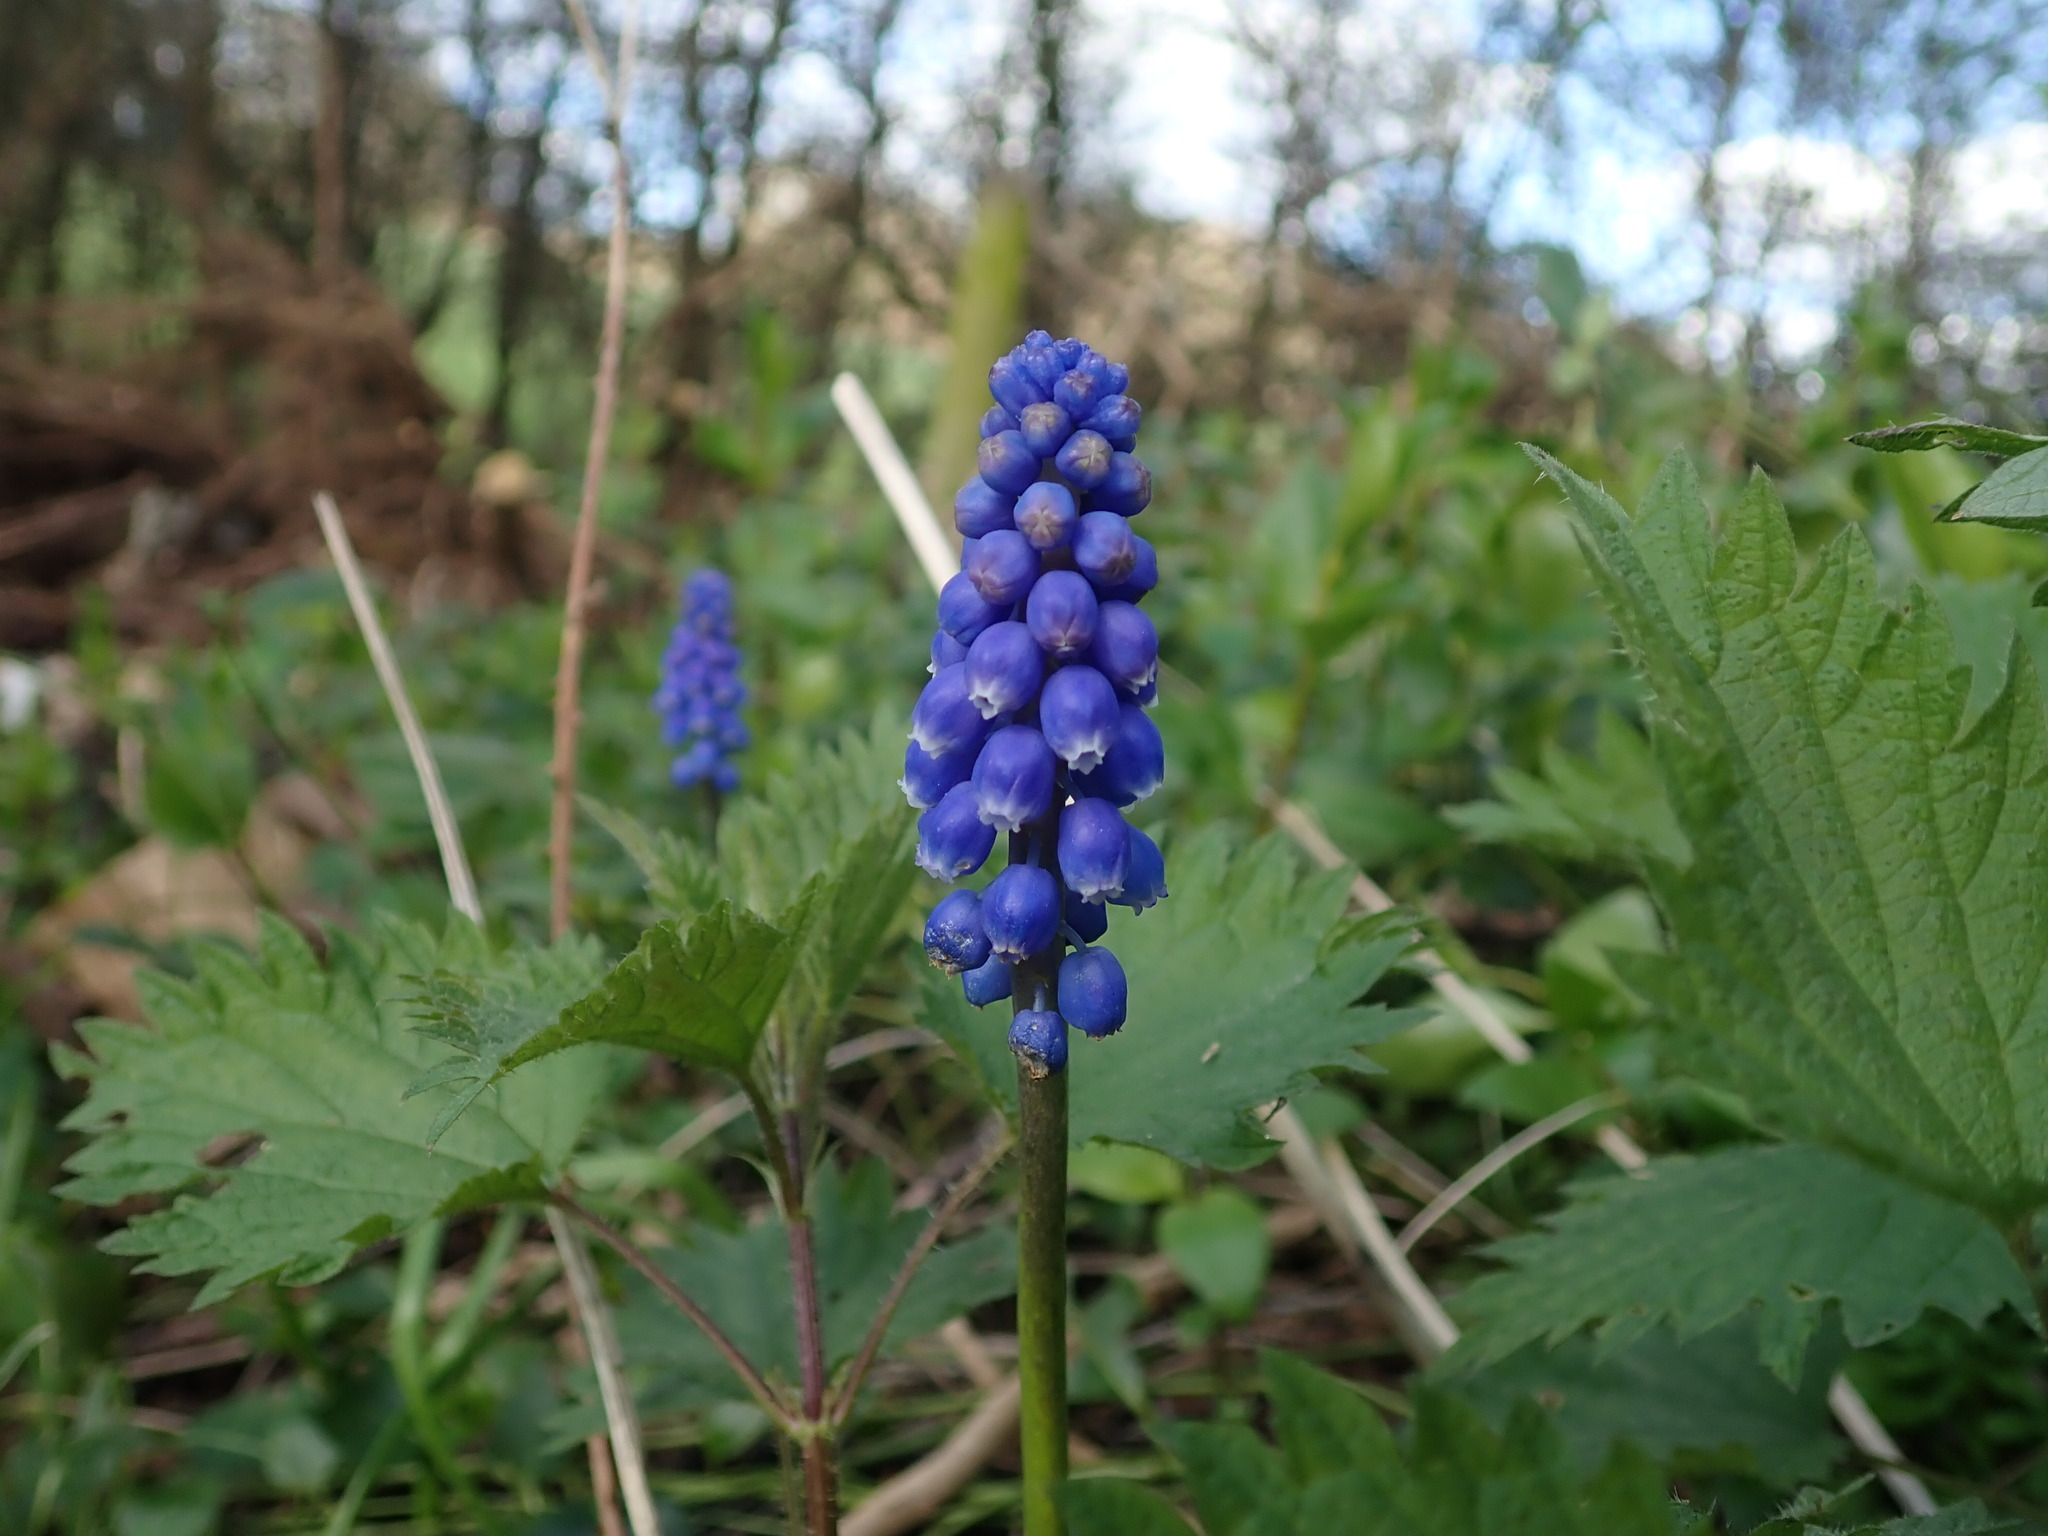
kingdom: Plantae
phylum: Tracheophyta
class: Liliopsida
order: Asparagales
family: Asparagaceae
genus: Muscari
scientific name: Muscari armeniacum
